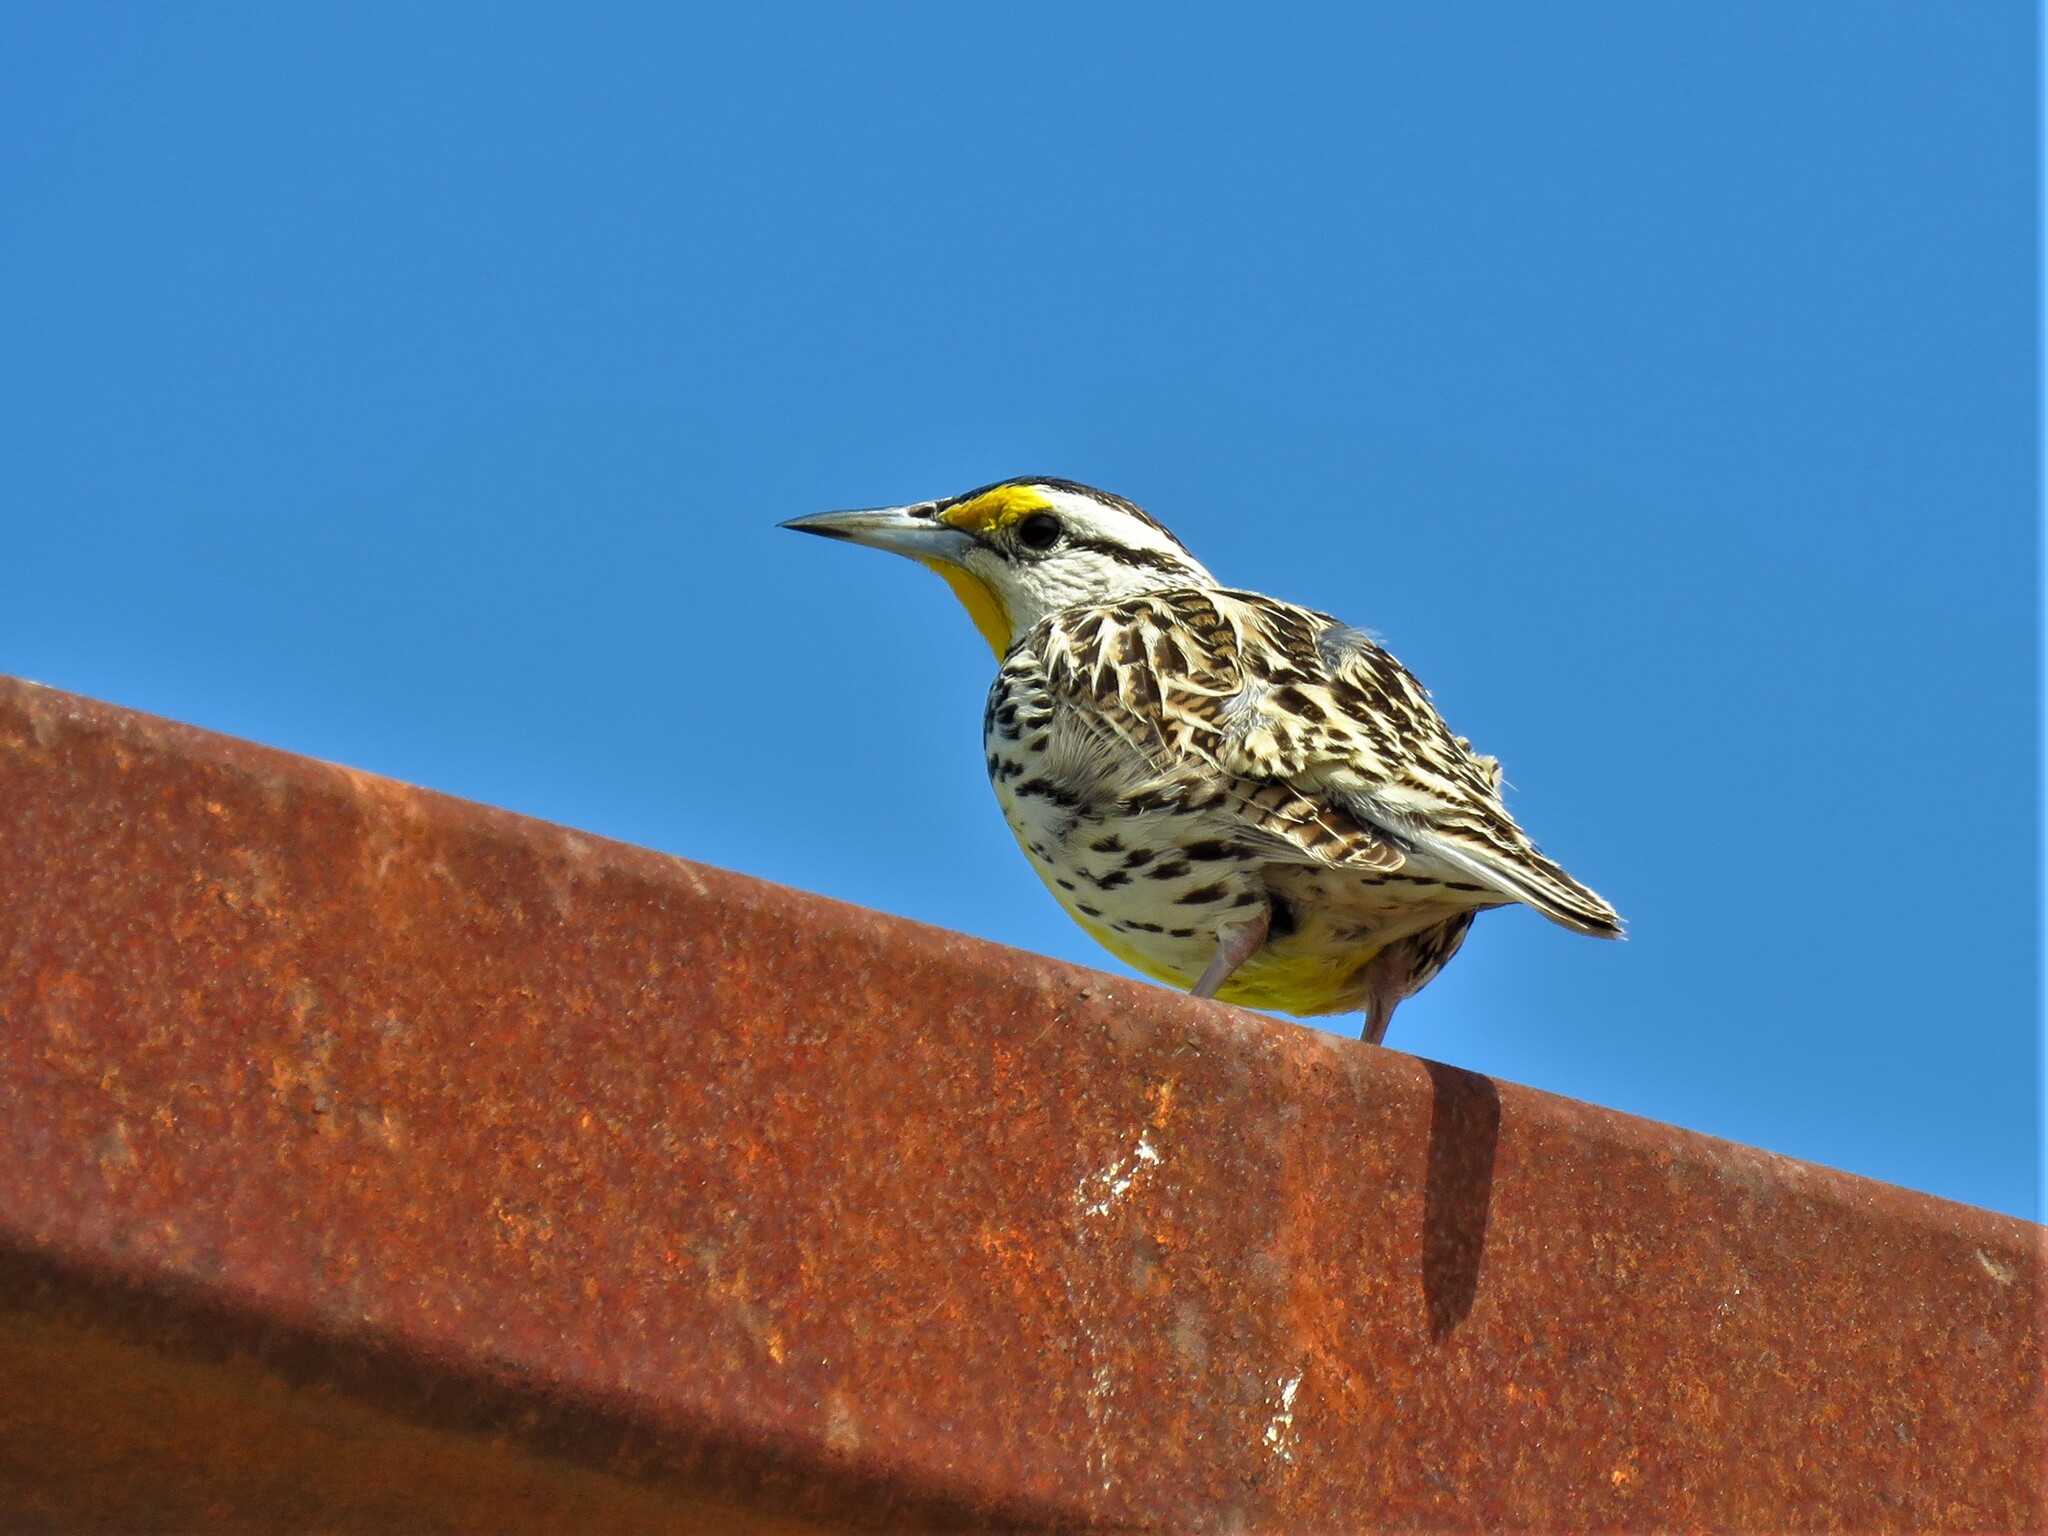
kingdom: Animalia
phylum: Chordata
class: Aves
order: Passeriformes
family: Icteridae
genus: Sturnella
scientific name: Sturnella magna
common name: Eastern meadowlark
